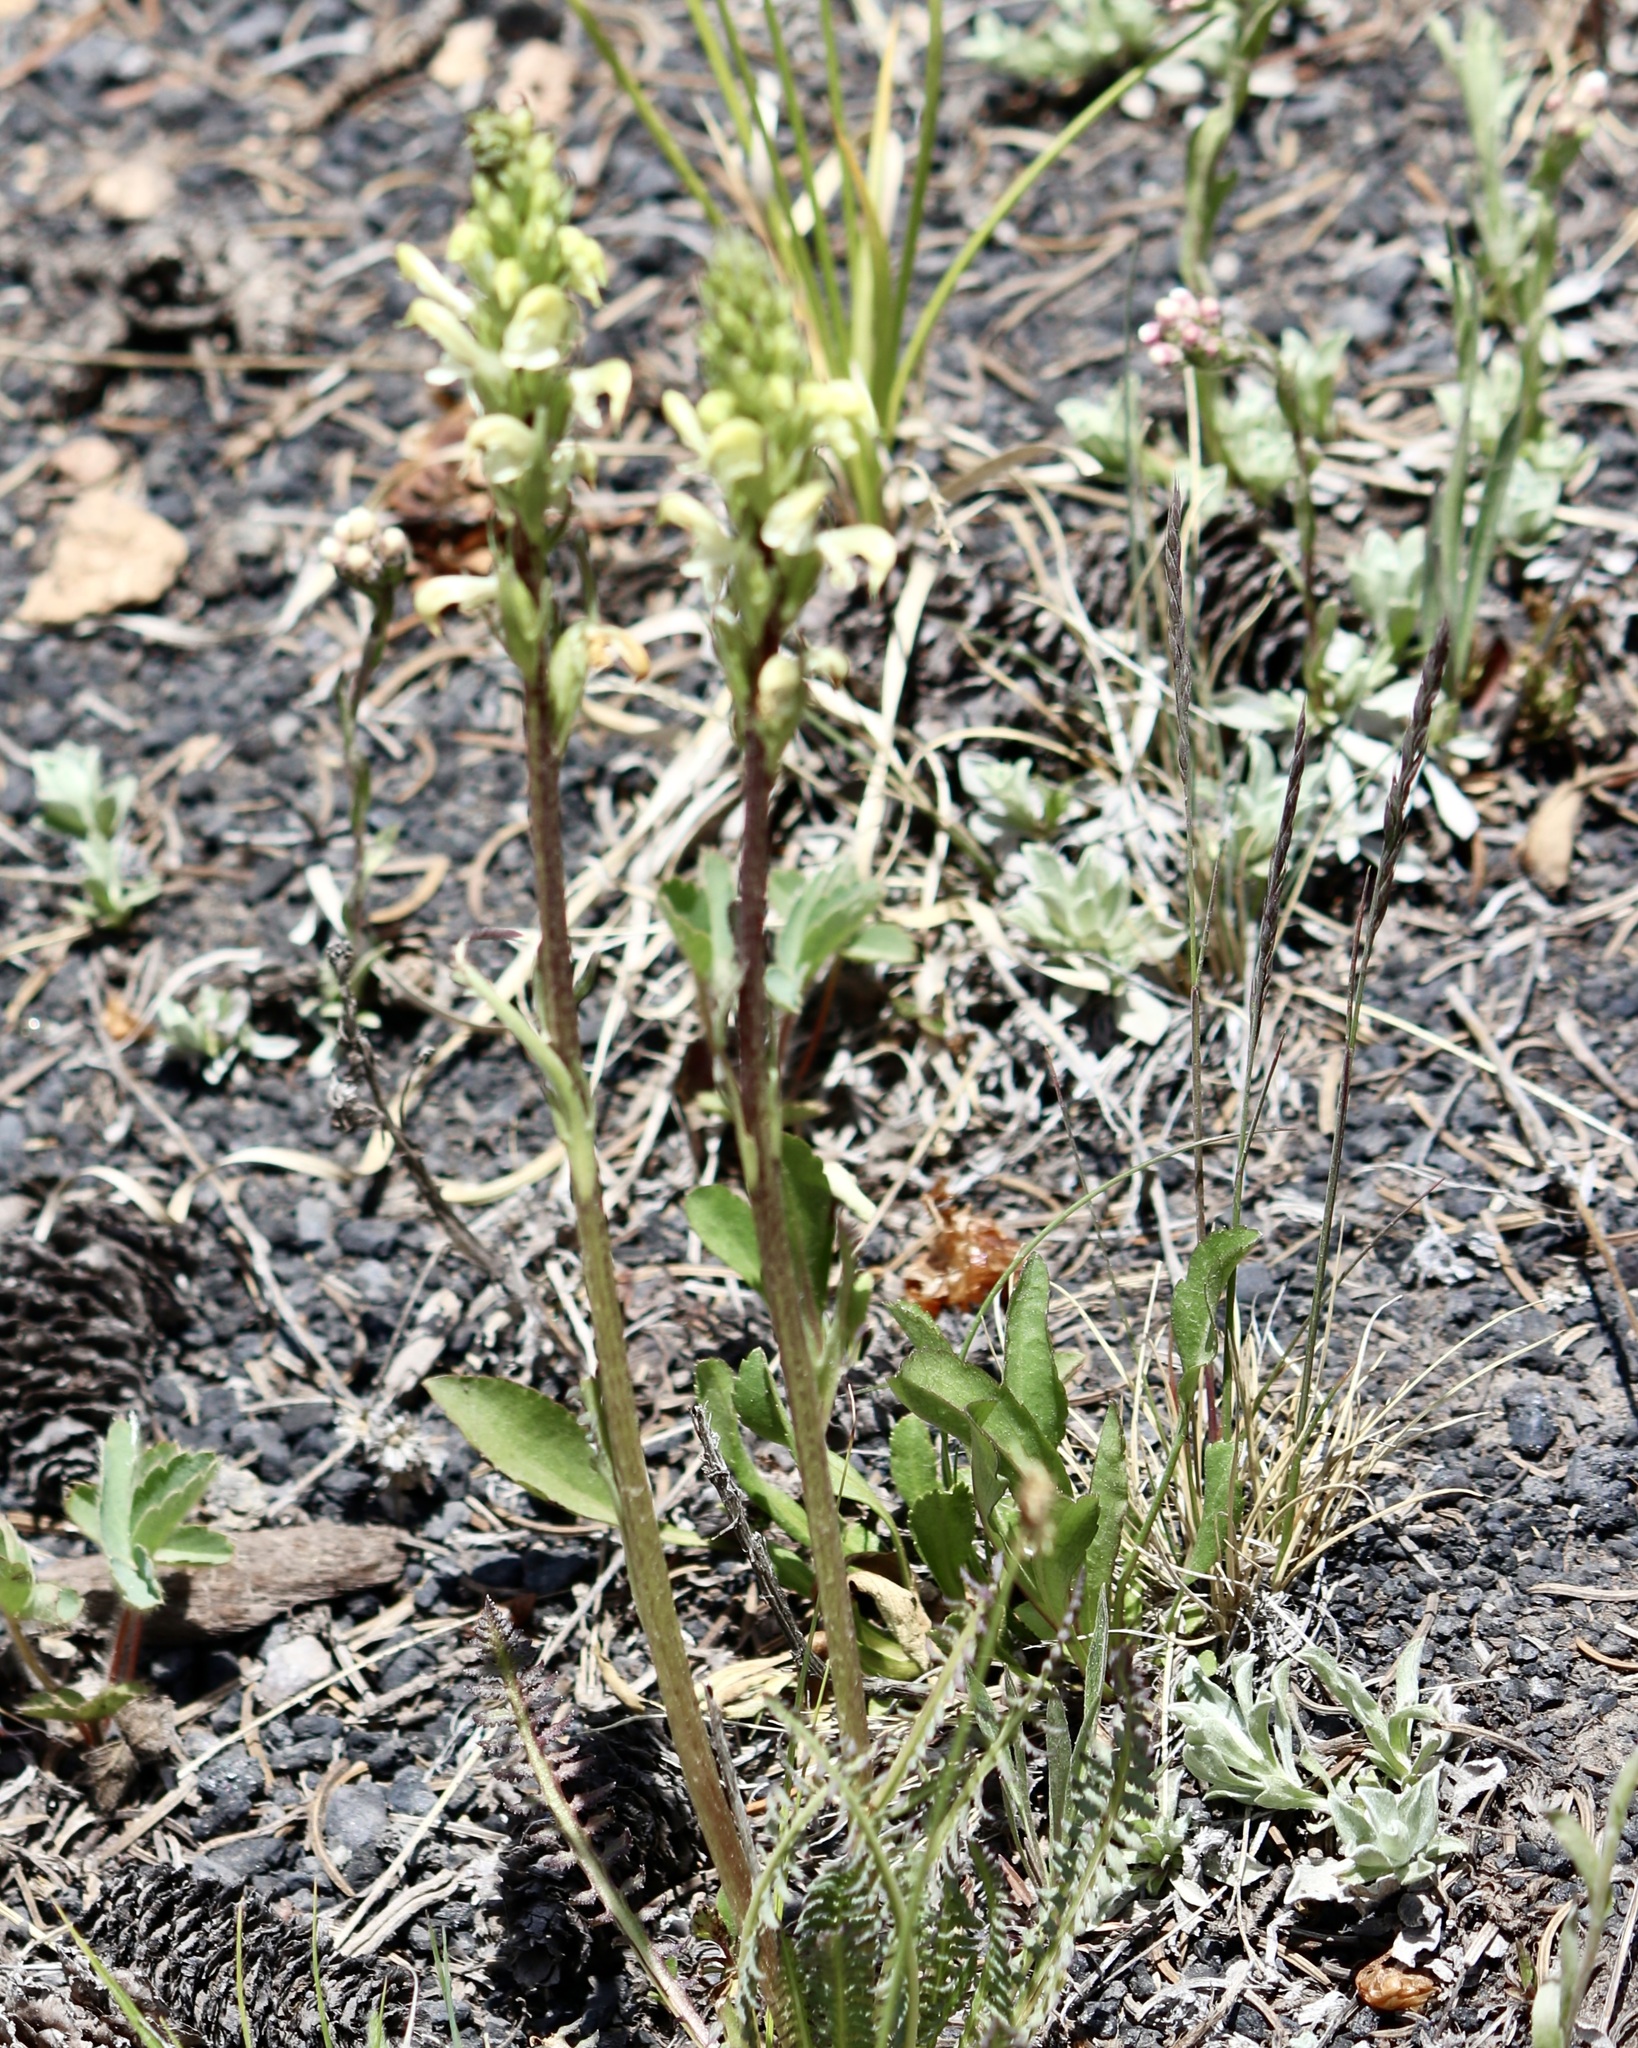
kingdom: Plantae
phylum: Tracheophyta
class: Magnoliopsida
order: Lamiales
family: Orobanchaceae
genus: Pedicularis
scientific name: Pedicularis parryi
